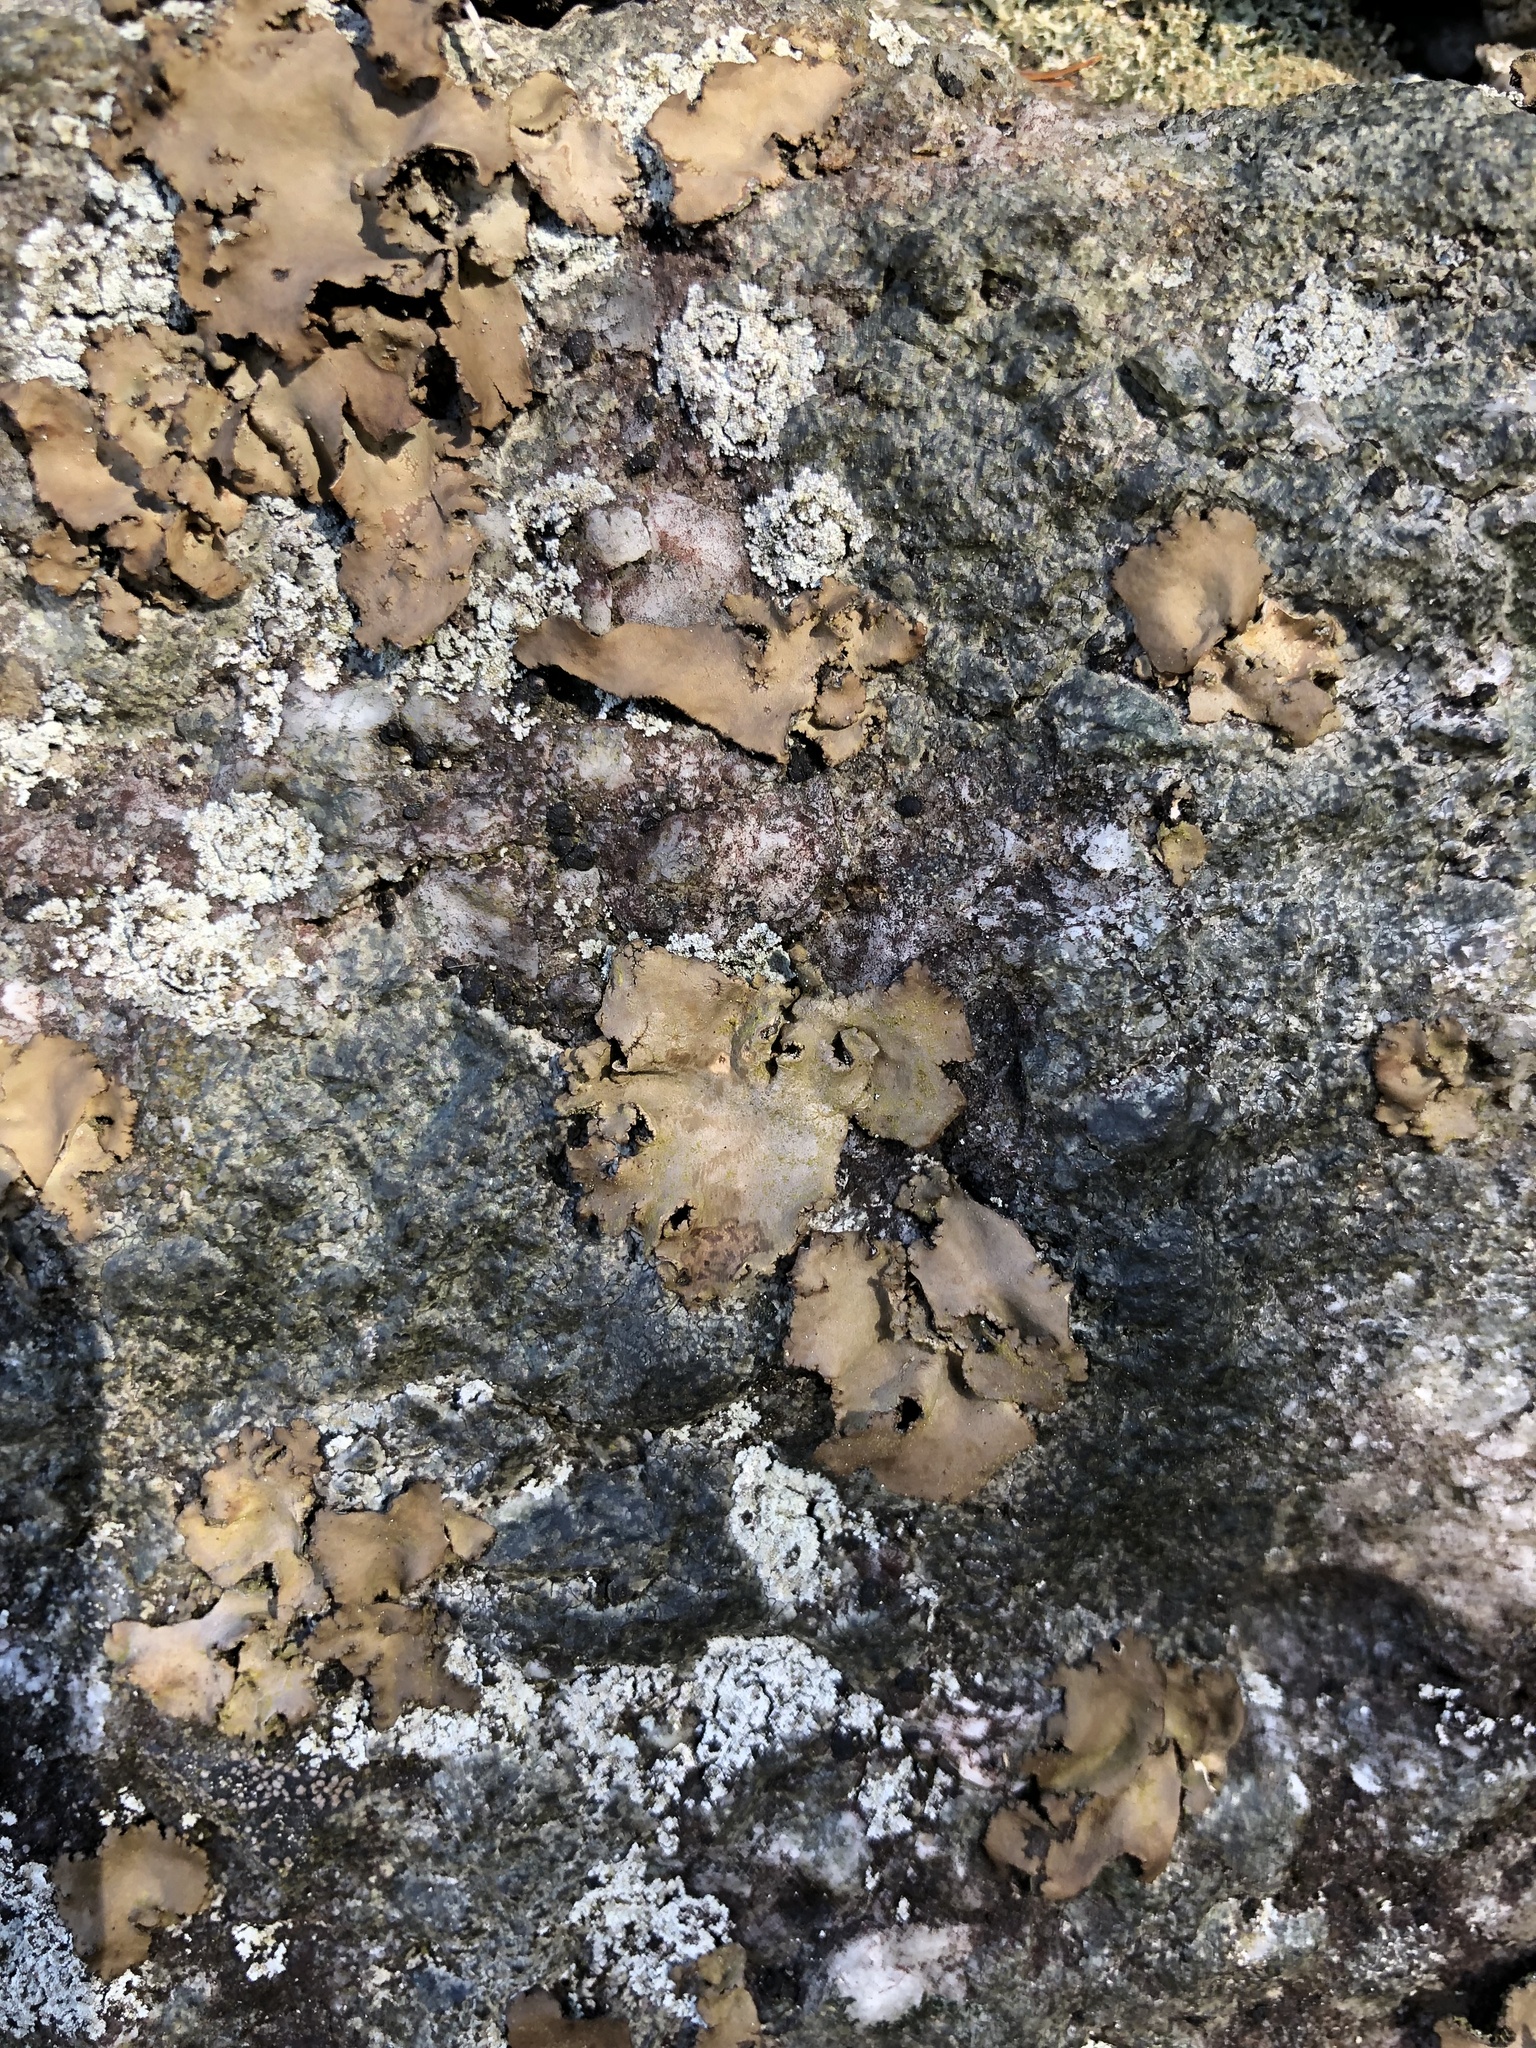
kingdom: Fungi
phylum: Ascomycota
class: Lecanoromycetes
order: Umbilicariales
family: Umbilicariaceae
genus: Umbilicaria
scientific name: Umbilicaria mammulata
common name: Smooth rock tripe
